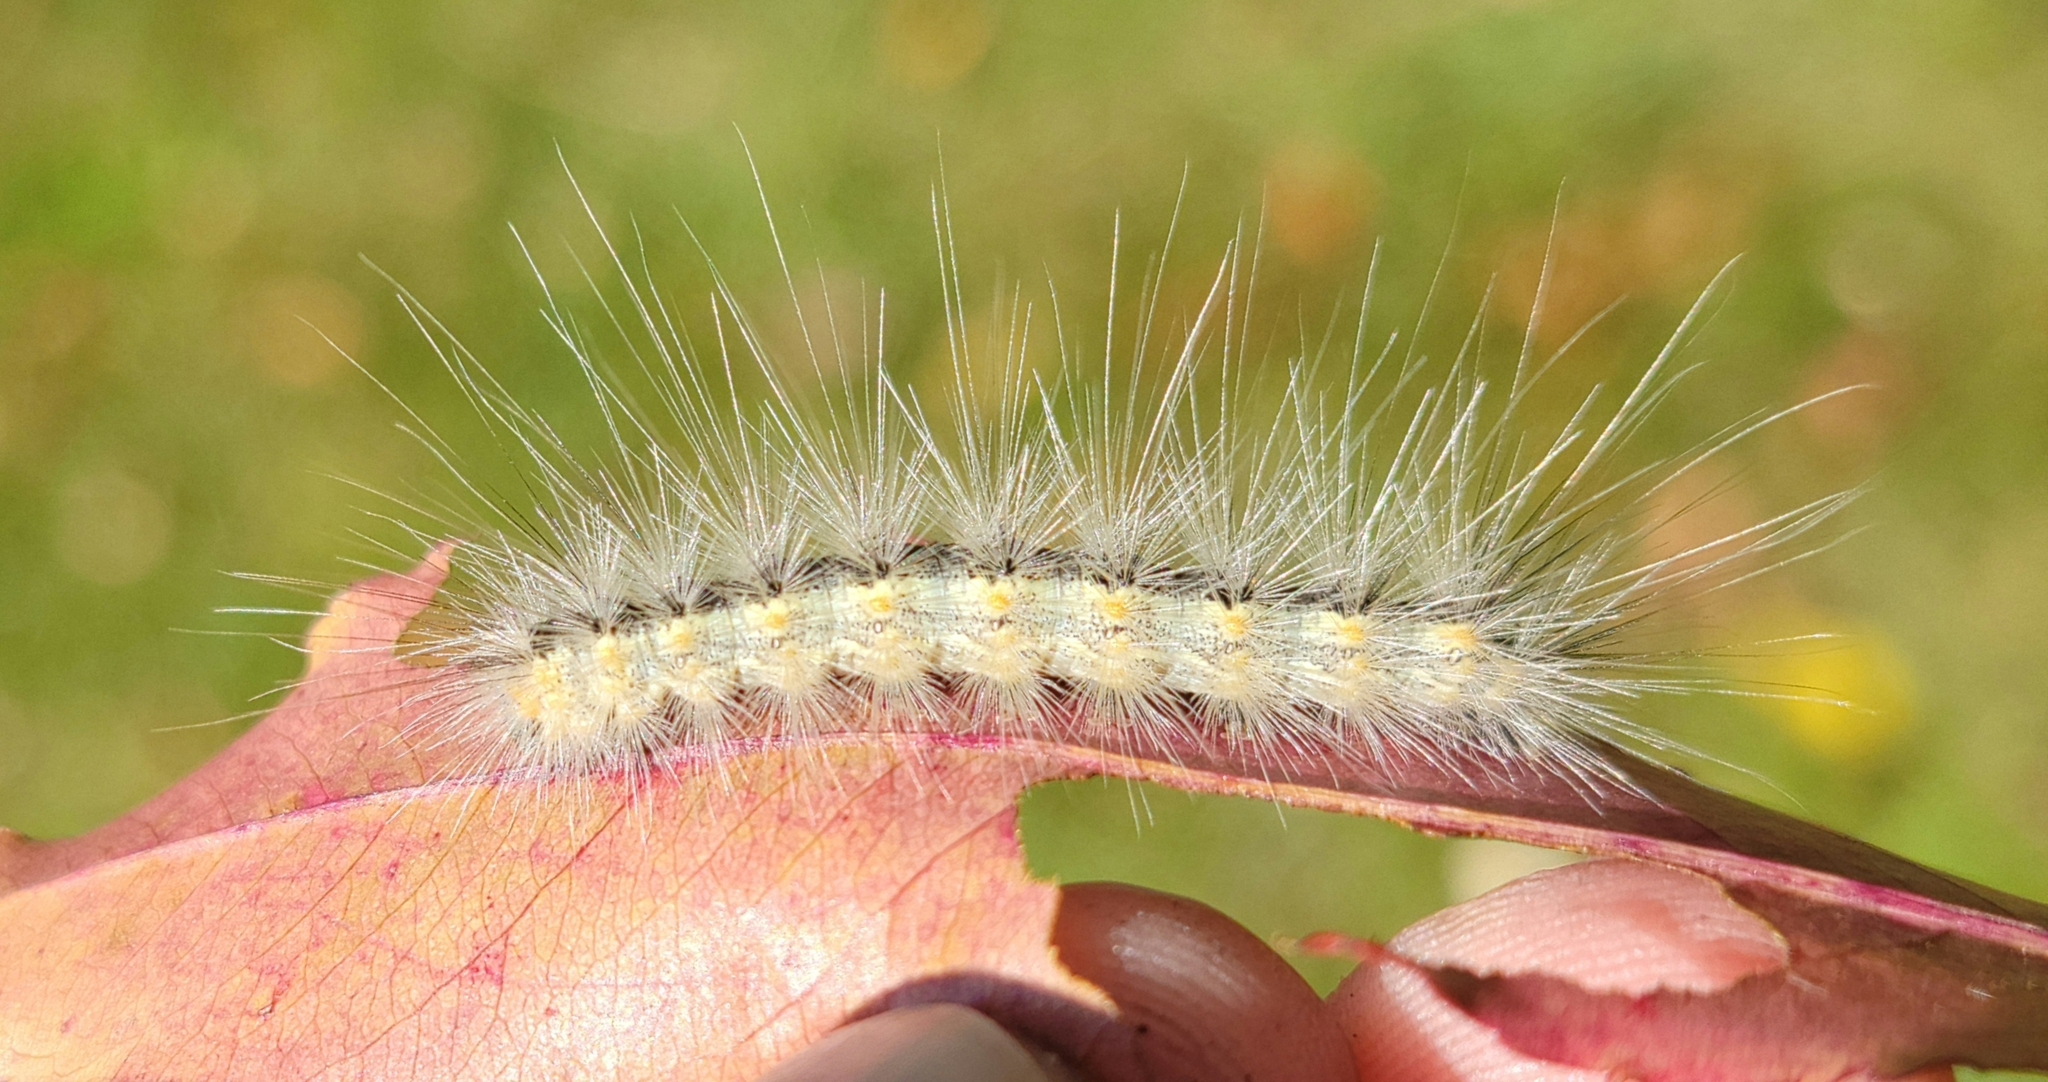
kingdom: Animalia
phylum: Arthropoda
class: Insecta
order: Lepidoptera
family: Erebidae
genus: Hyphantria
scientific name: Hyphantria cunea
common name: American white moth
